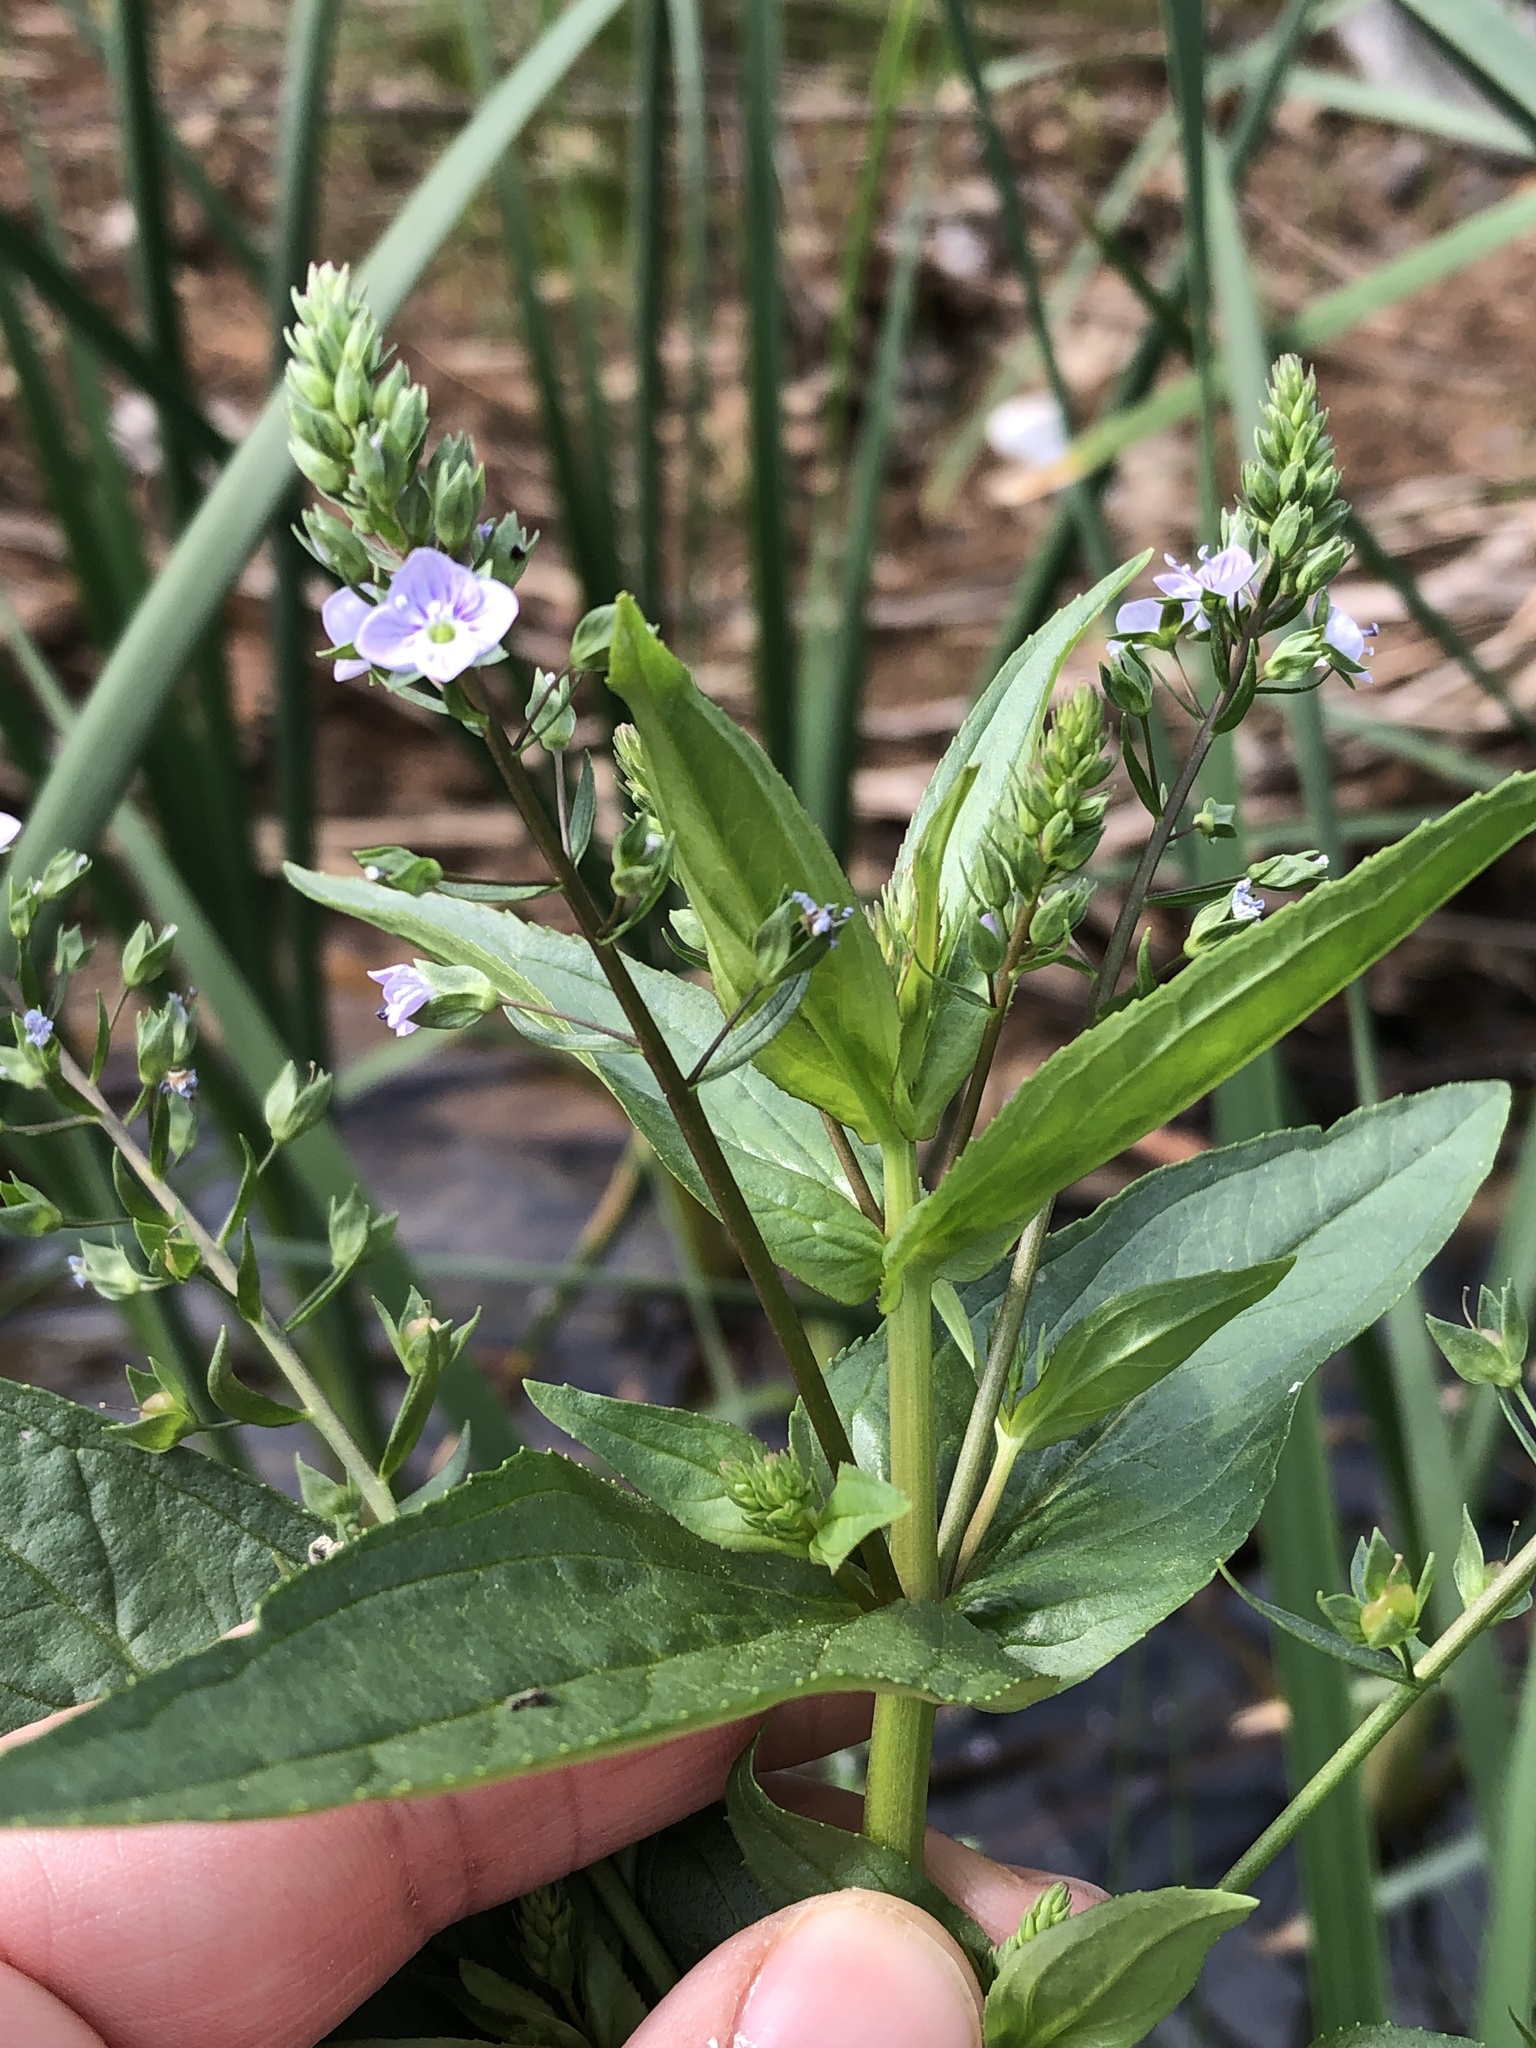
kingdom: Plantae
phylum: Tracheophyta
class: Magnoliopsida
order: Lamiales
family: Plantaginaceae
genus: Veronica
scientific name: Veronica anagallis-aquatica
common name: Water speedwell
